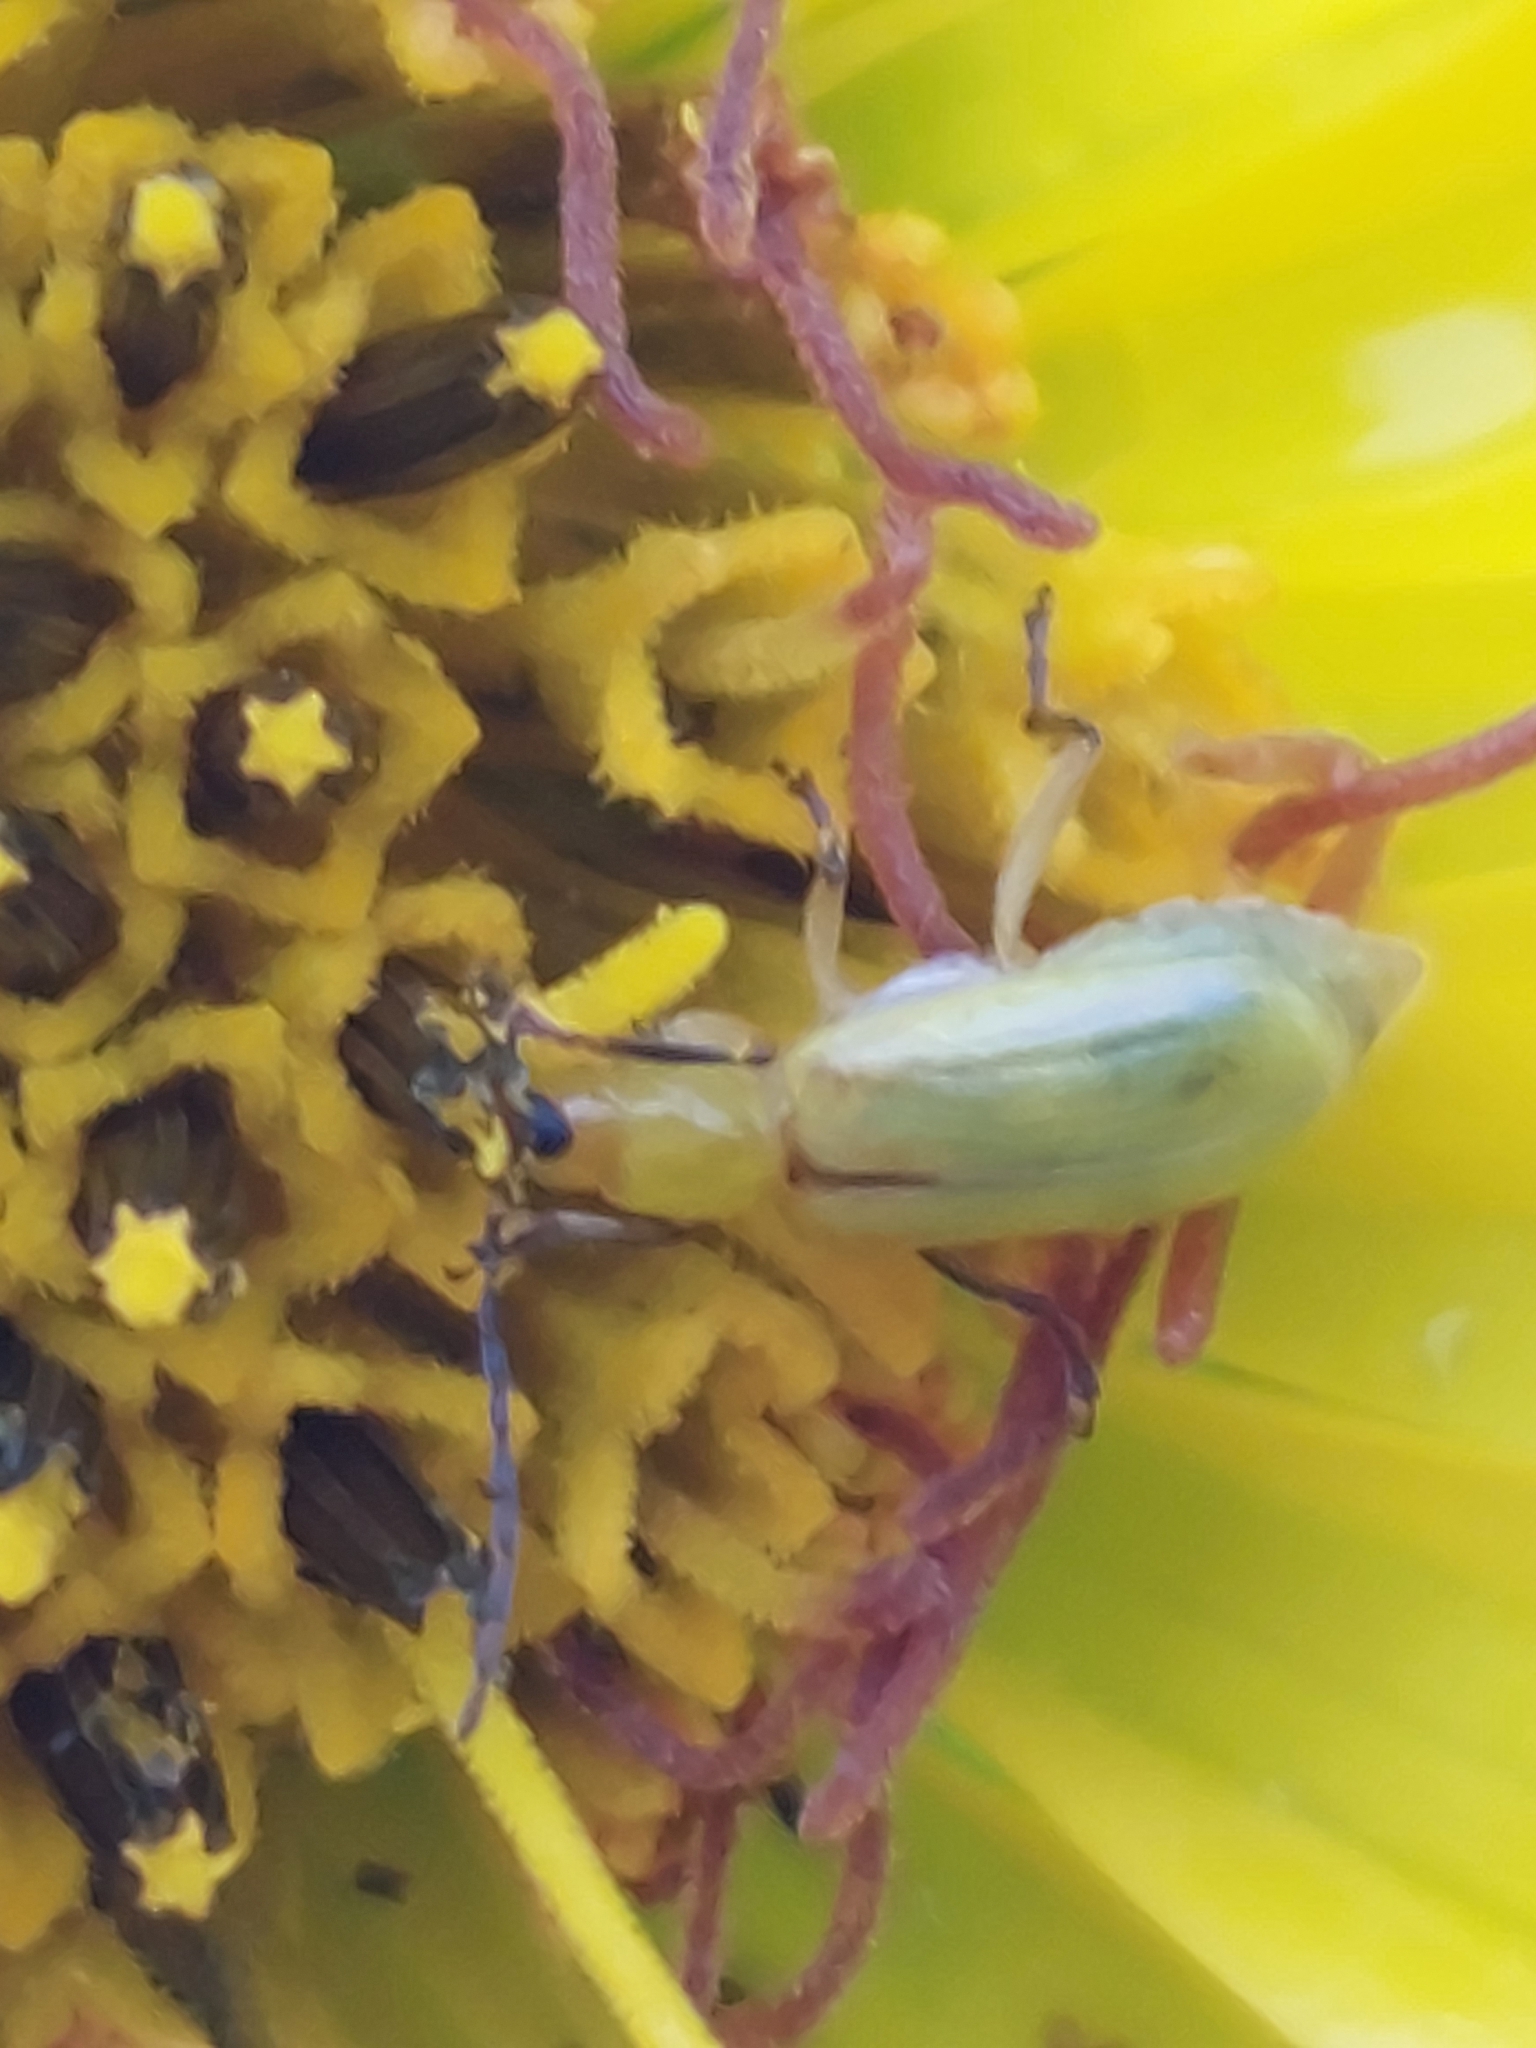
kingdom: Animalia
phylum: Arthropoda
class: Insecta
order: Coleoptera
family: Chrysomelidae
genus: Diabrotica
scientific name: Diabrotica barberi
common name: Northern corn rootworm
